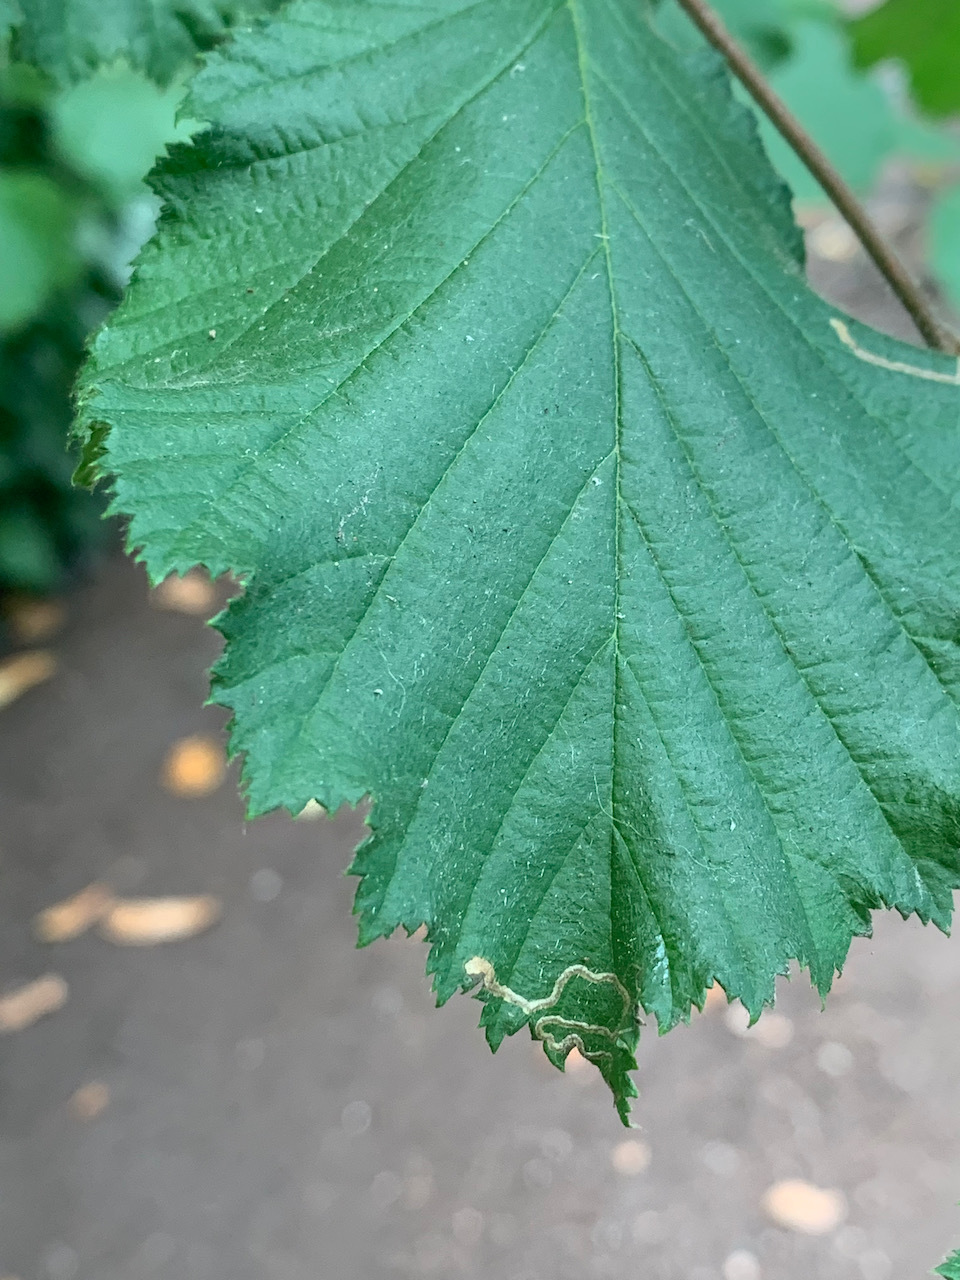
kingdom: Animalia
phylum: Arthropoda
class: Insecta
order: Lepidoptera
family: Nepticulidae
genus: Stigmella
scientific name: Stigmella microtheriella
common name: Nut-tree pigmy
